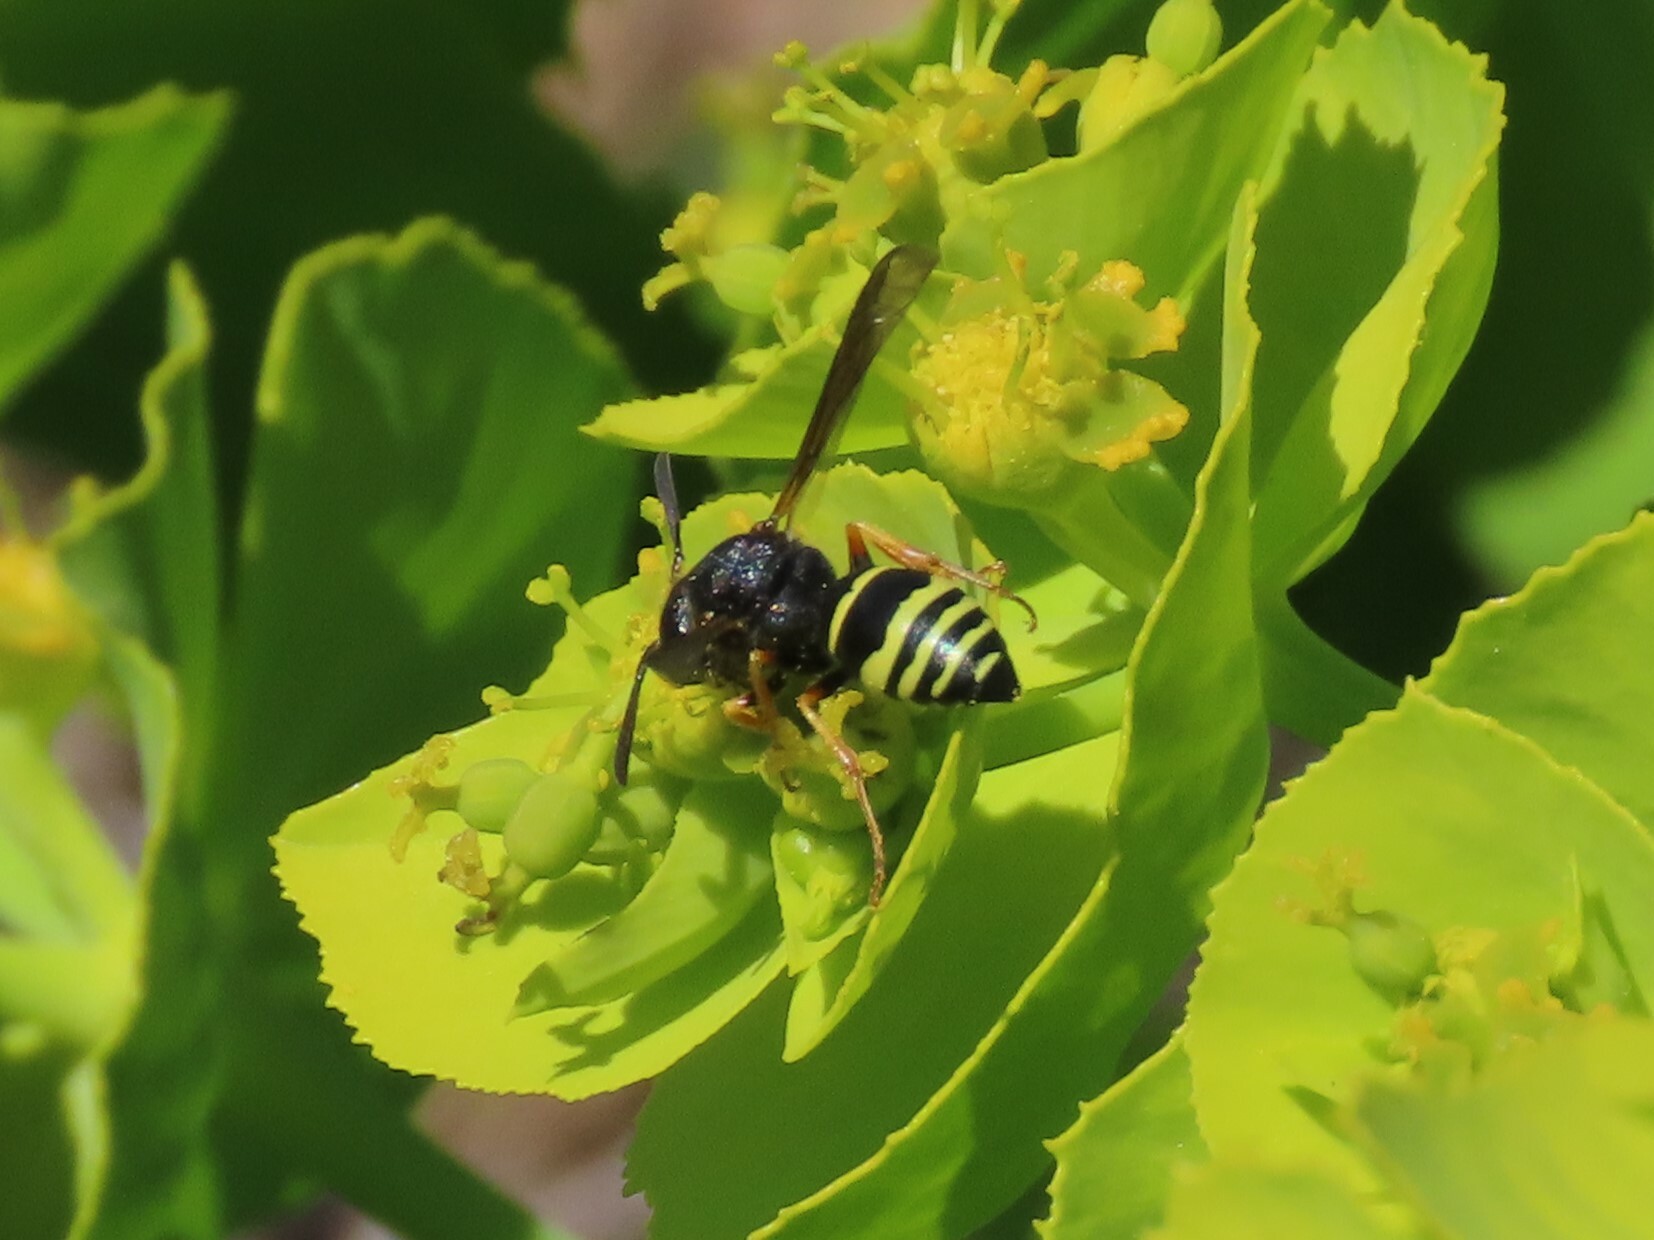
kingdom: Animalia
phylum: Arthropoda
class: Insecta
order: Hymenoptera
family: Vespidae
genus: Odynerus
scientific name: Odynerus dusmeticus
